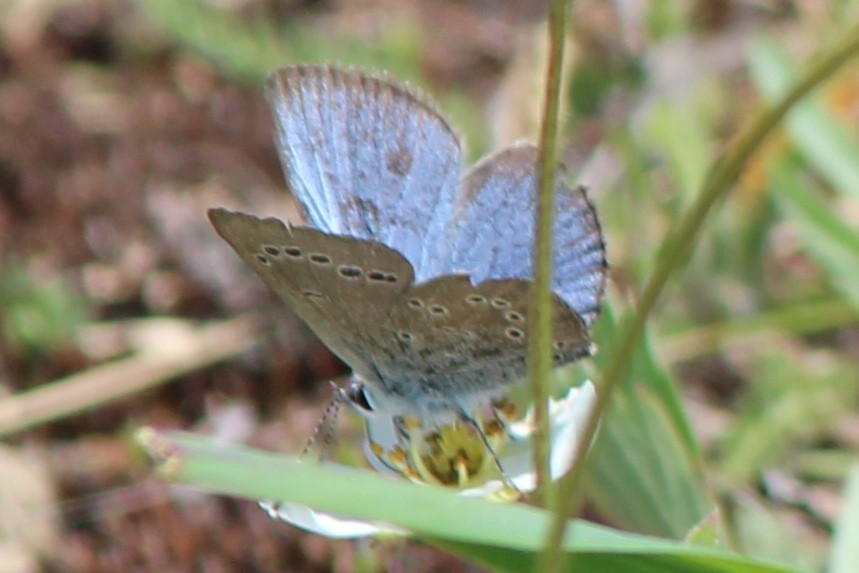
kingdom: Animalia
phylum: Arthropoda
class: Insecta
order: Lepidoptera
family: Lycaenidae
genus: Glaucopsyche
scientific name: Glaucopsyche lygdamus
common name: Silvery blue
